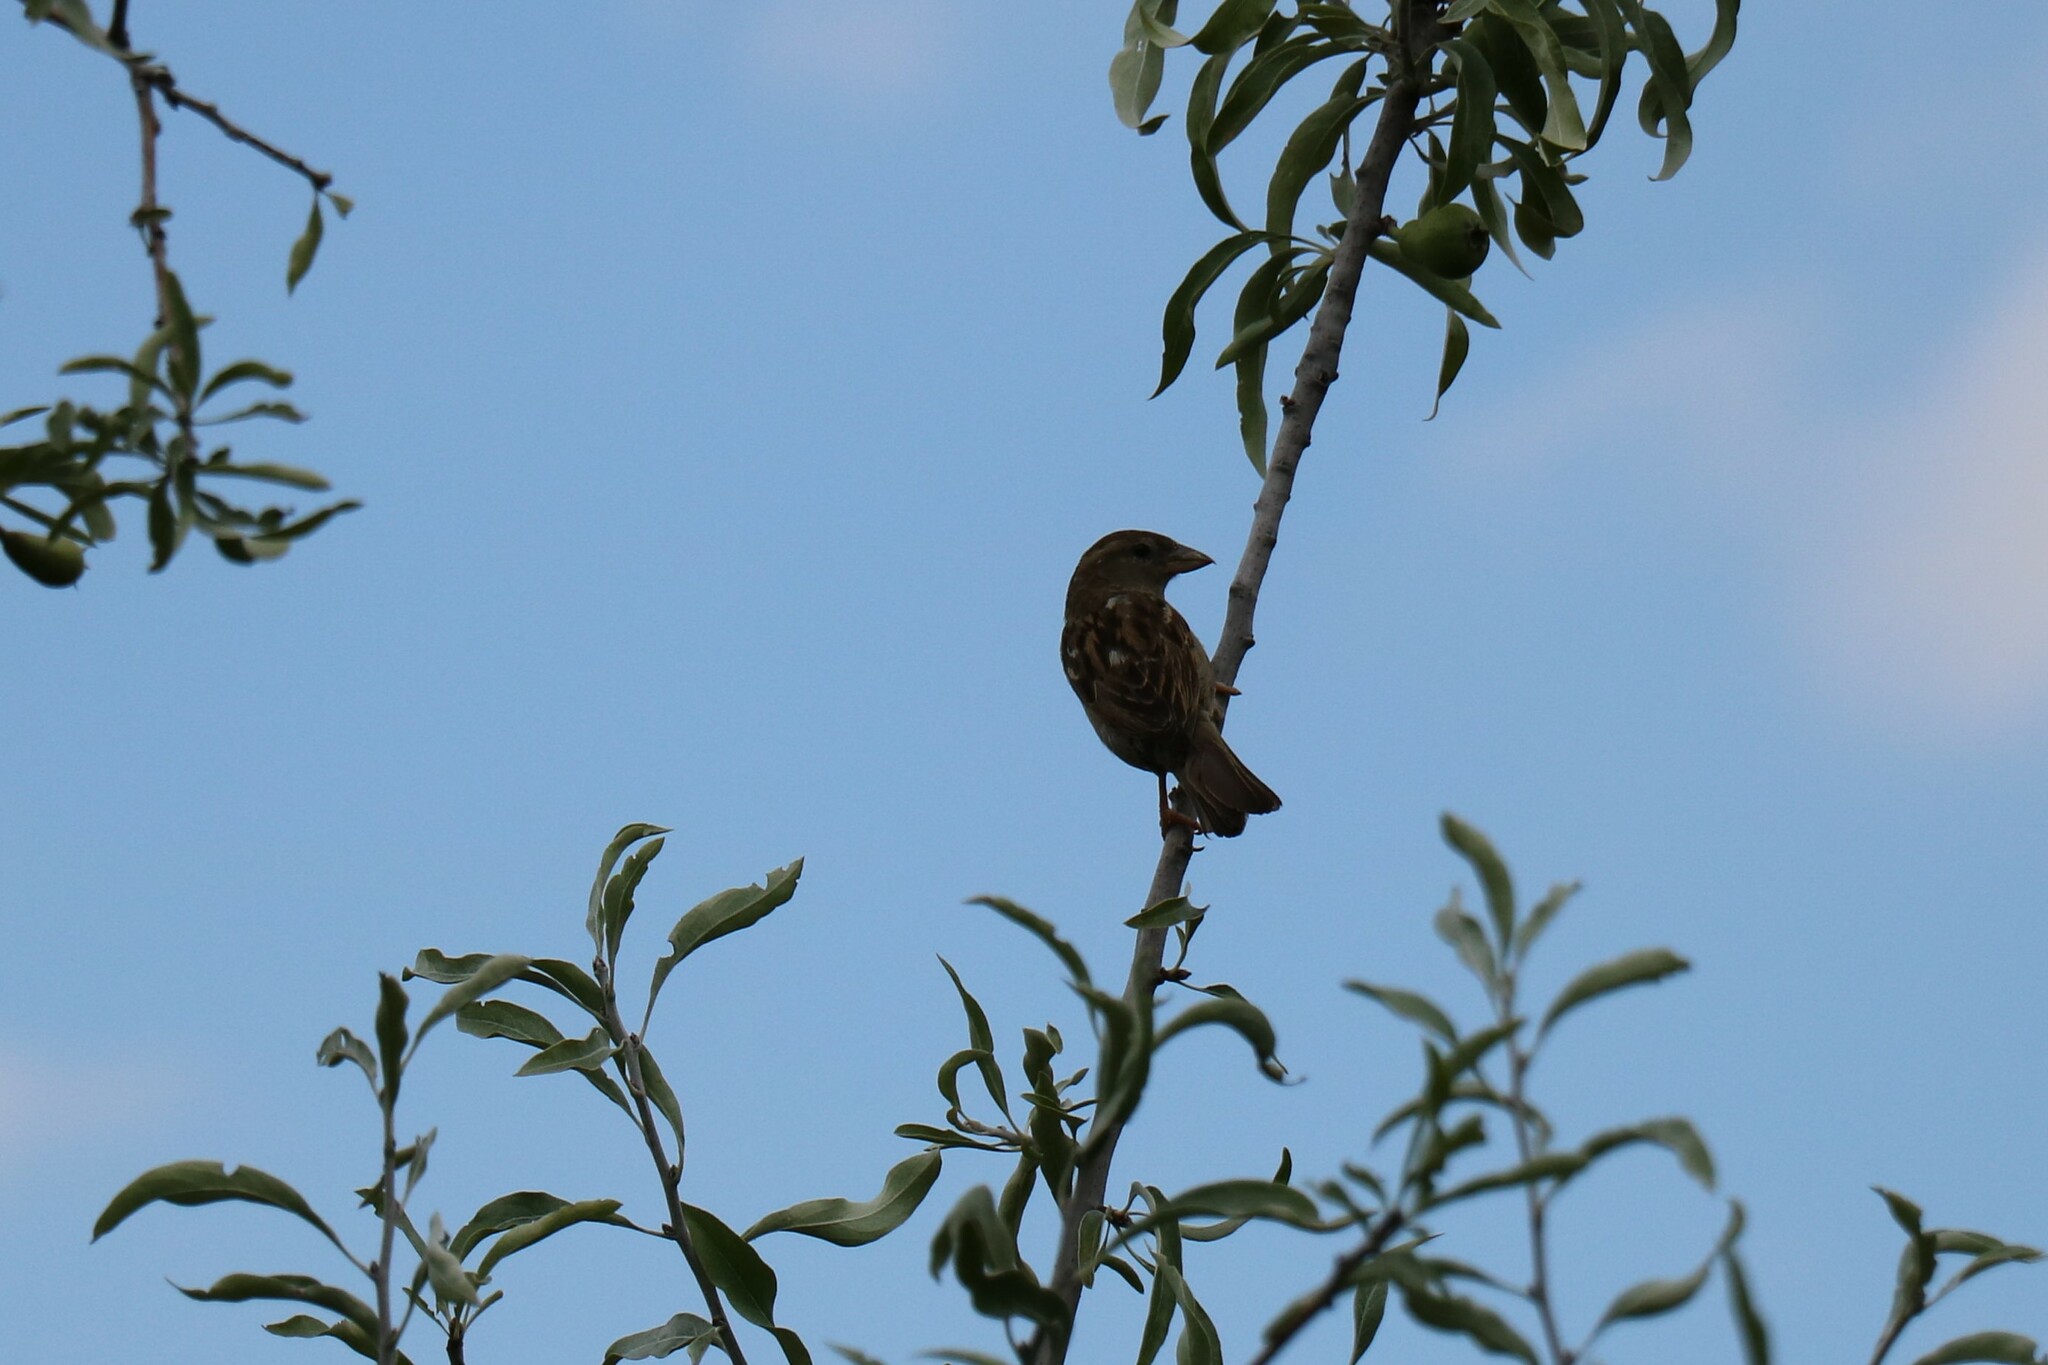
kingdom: Animalia
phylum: Chordata
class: Aves
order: Passeriformes
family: Passeridae
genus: Passer
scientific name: Passer domesticus
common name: House sparrow
